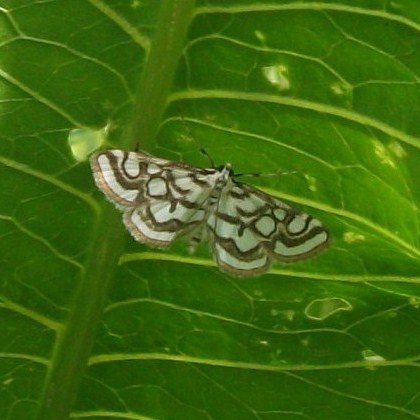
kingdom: Animalia
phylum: Arthropoda
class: Insecta
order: Lepidoptera
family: Crambidae
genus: Nymphula
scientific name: Nymphula nitidulata
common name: Beautiful china mark
